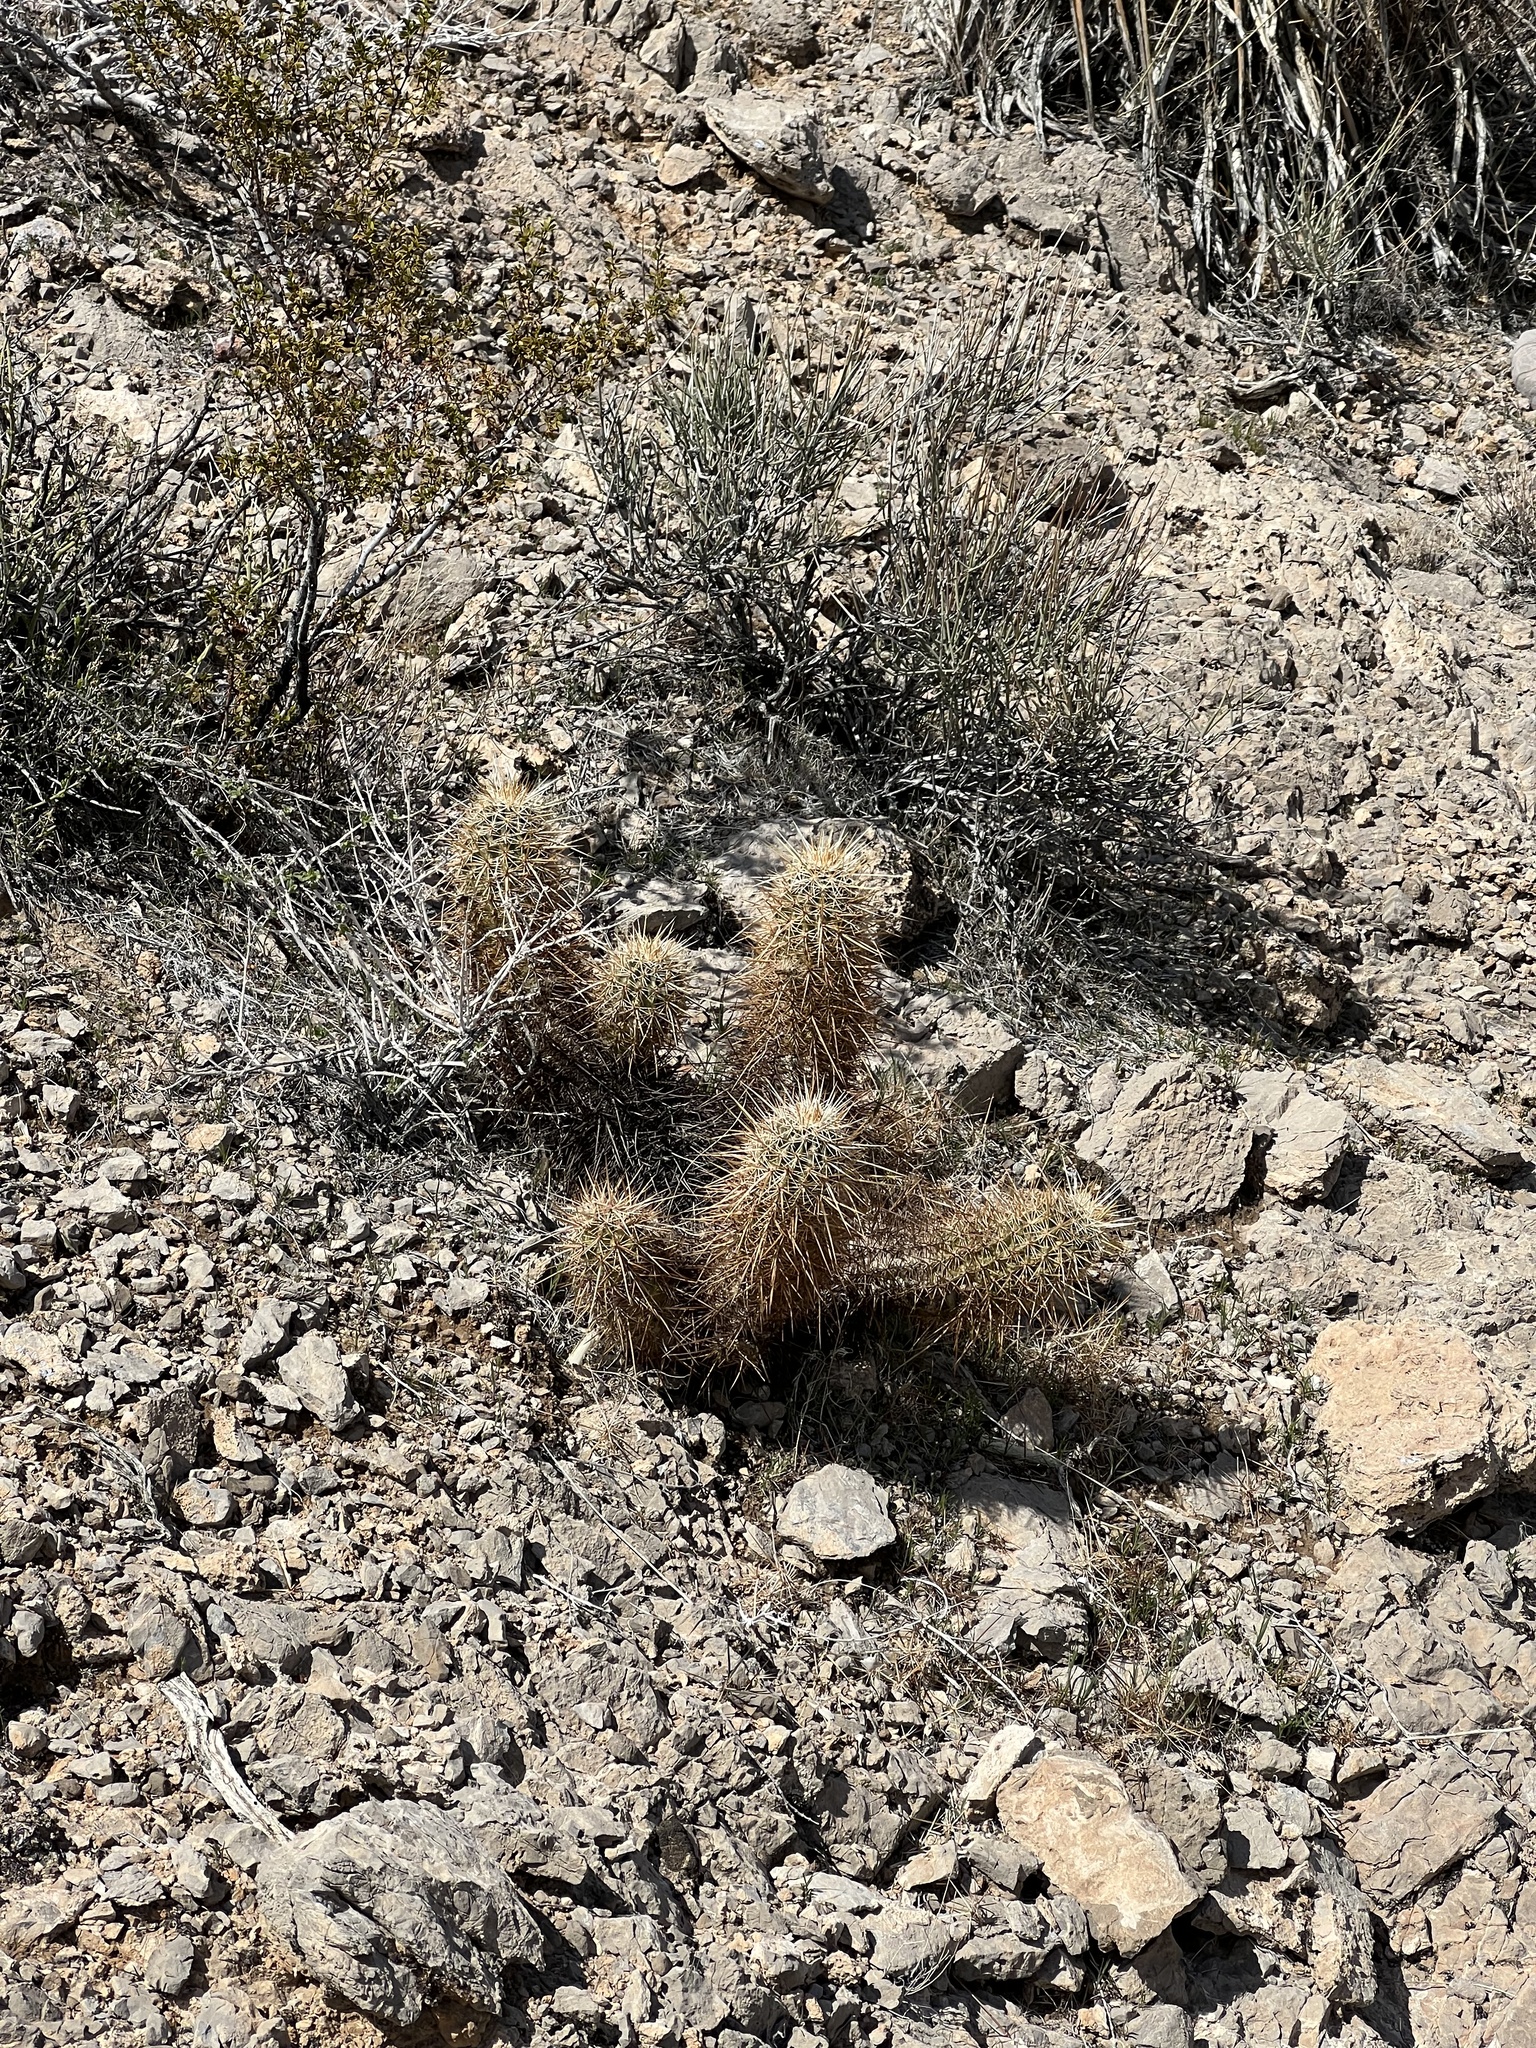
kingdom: Plantae
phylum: Tracheophyta
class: Magnoliopsida
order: Caryophyllales
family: Cactaceae
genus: Echinocereus
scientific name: Echinocereus engelmannii
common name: Engelmann's hedgehog cactus
